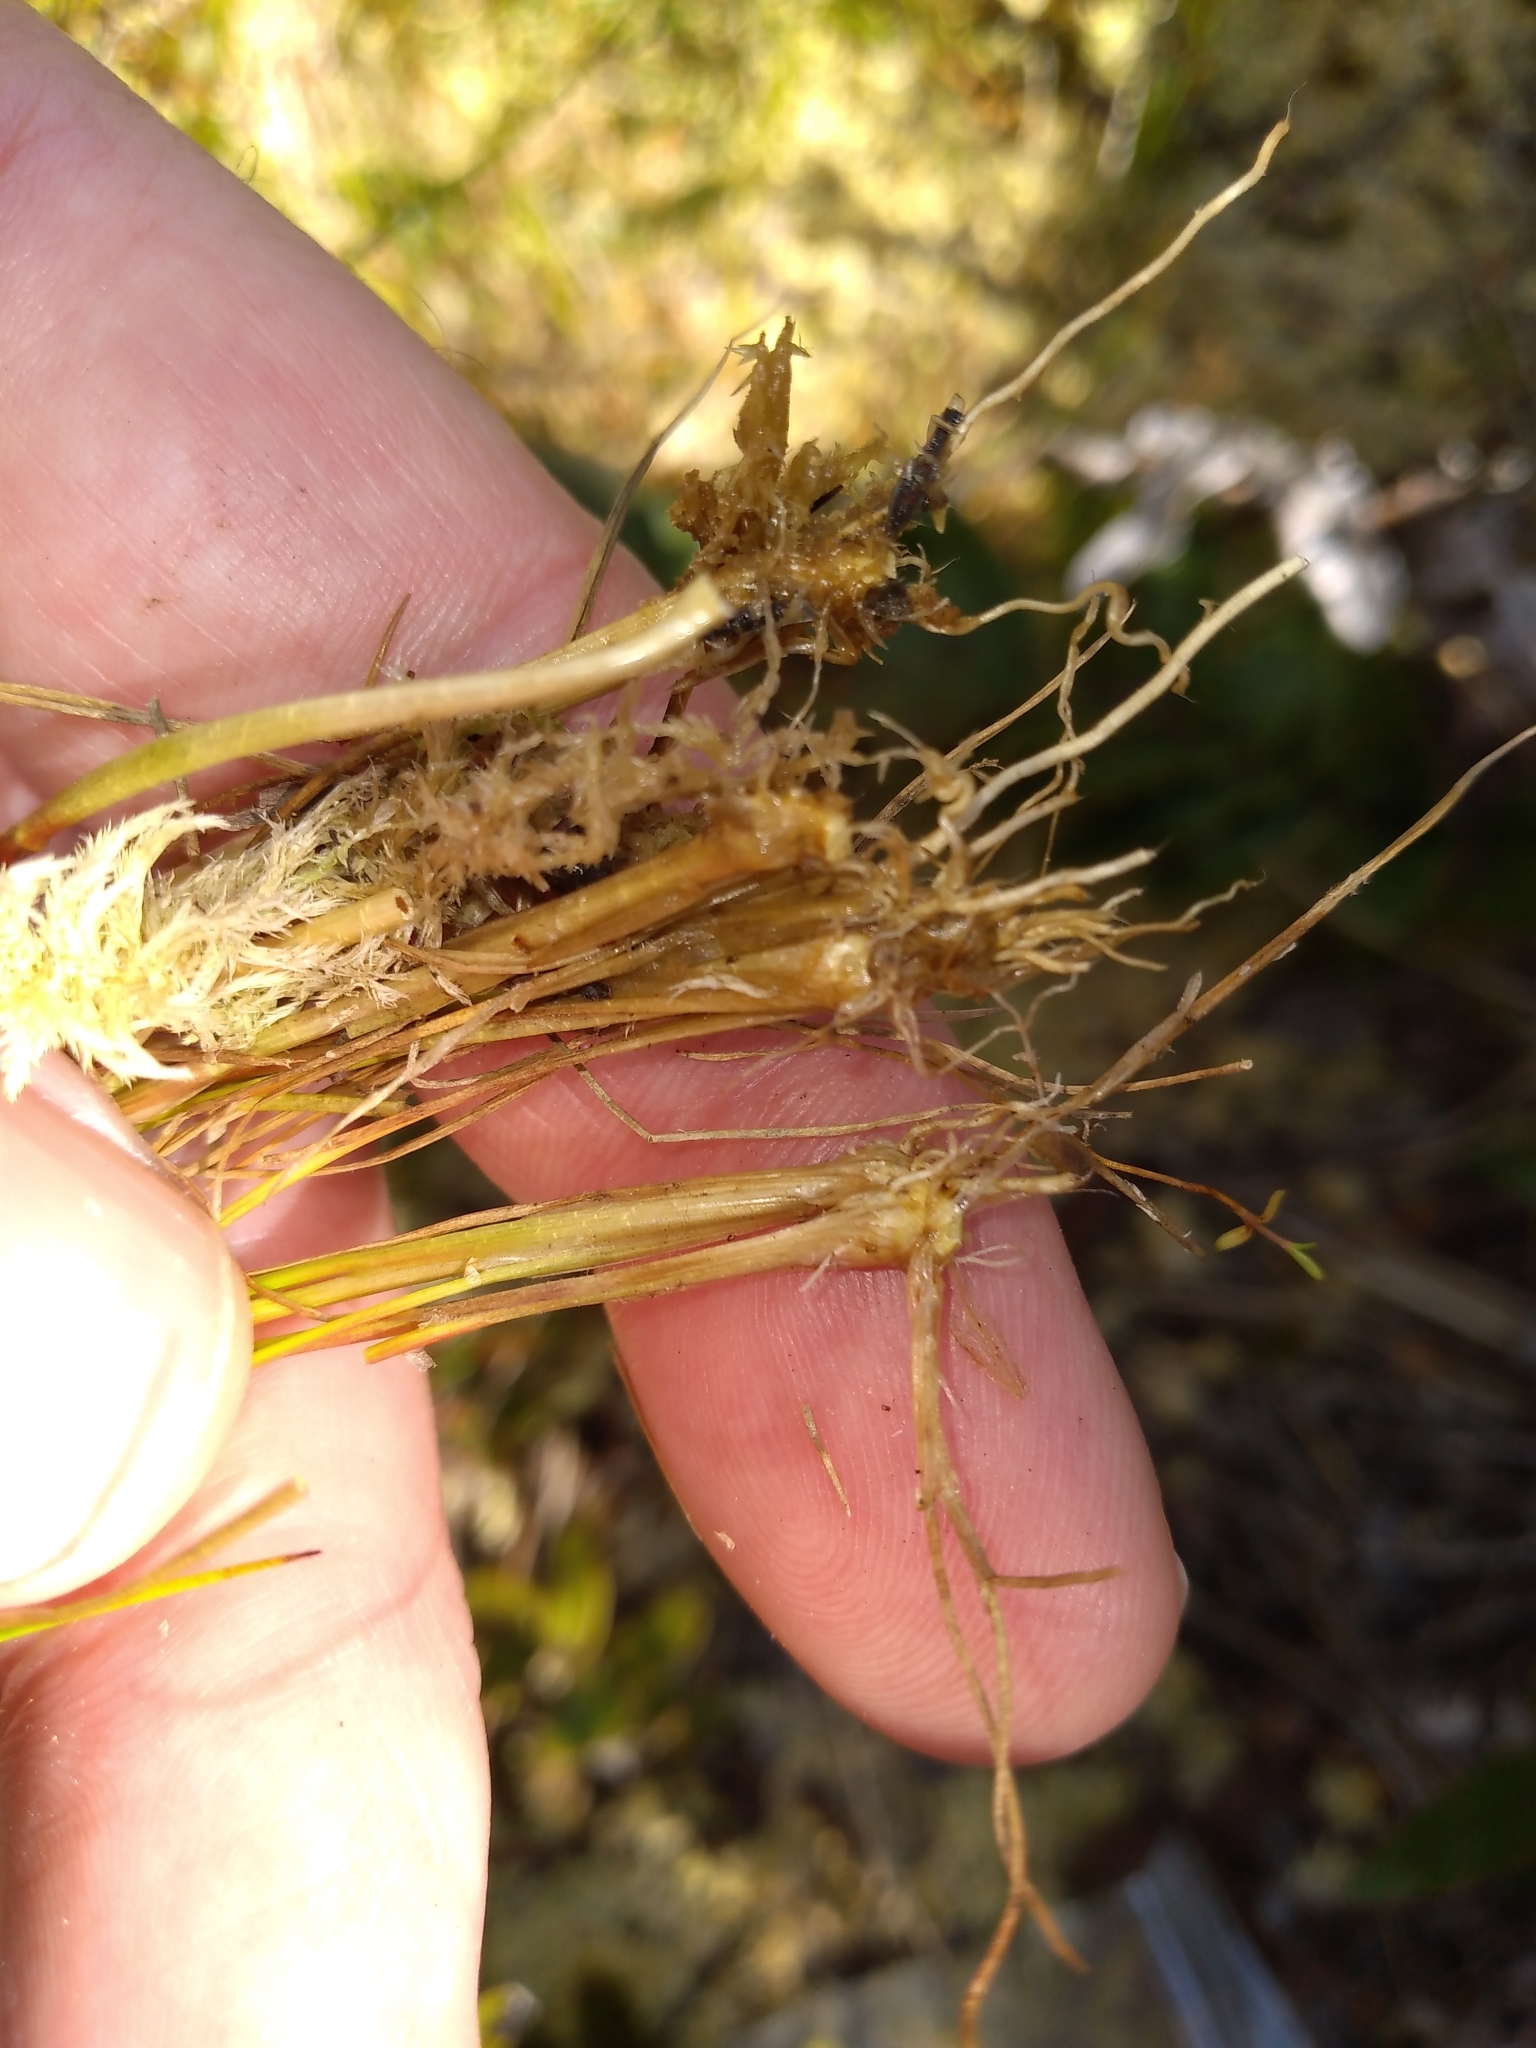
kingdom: Plantae
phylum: Tracheophyta
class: Liliopsida
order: Poales
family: Juncaceae
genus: Juncus
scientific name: Juncus bulbosus
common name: Bulbous rush
